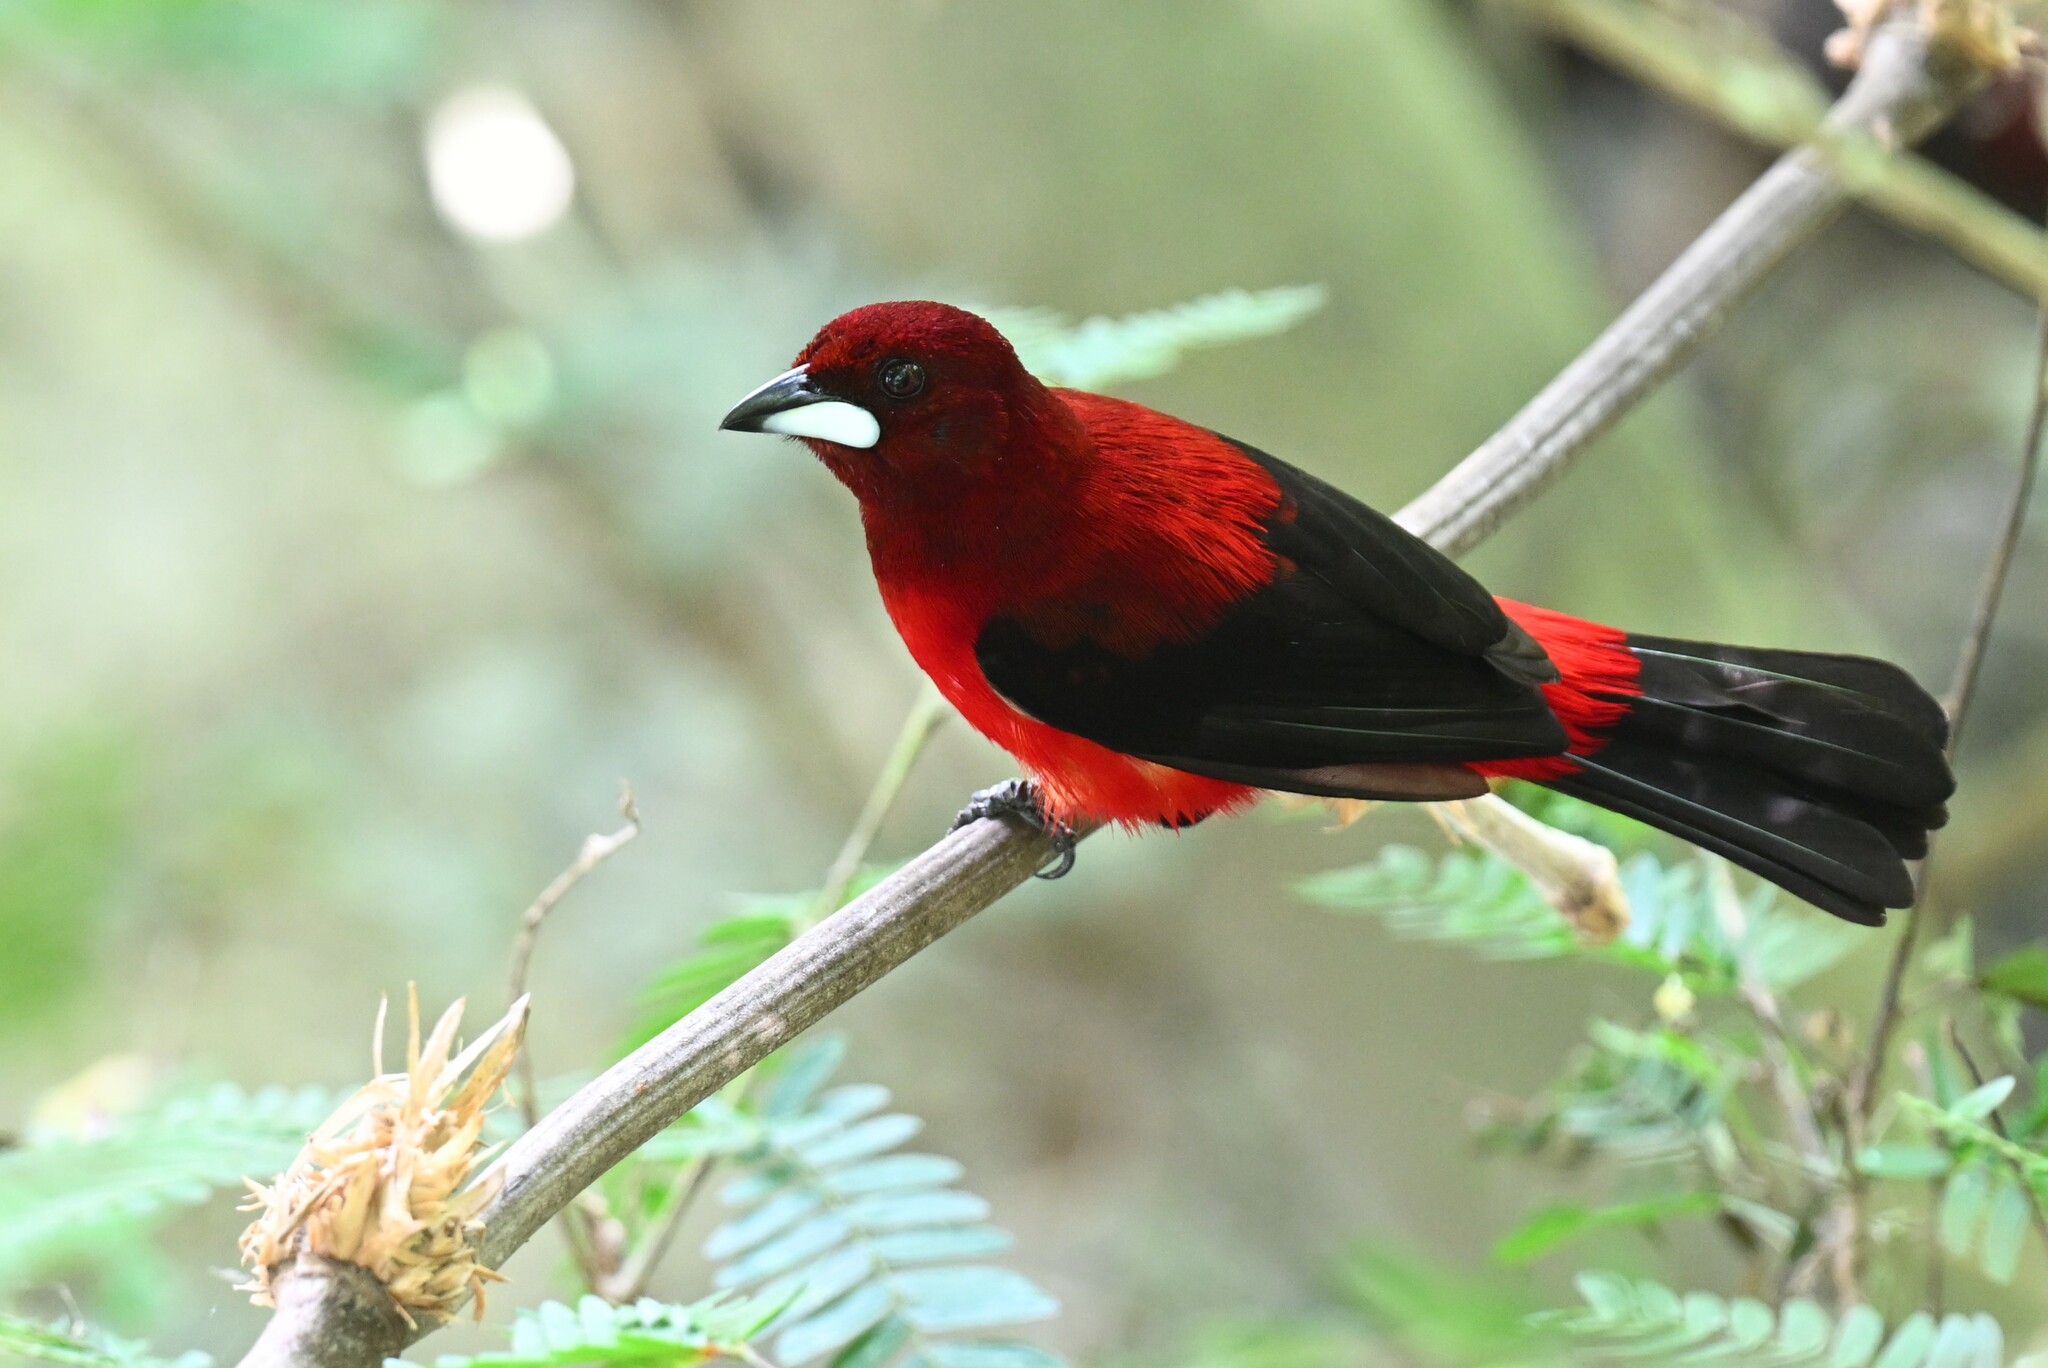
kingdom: Animalia
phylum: Chordata
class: Aves
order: Passeriformes
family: Thraupidae
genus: Ramphocelus
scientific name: Ramphocelus dimidiatus
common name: Crimson-backed tanager
